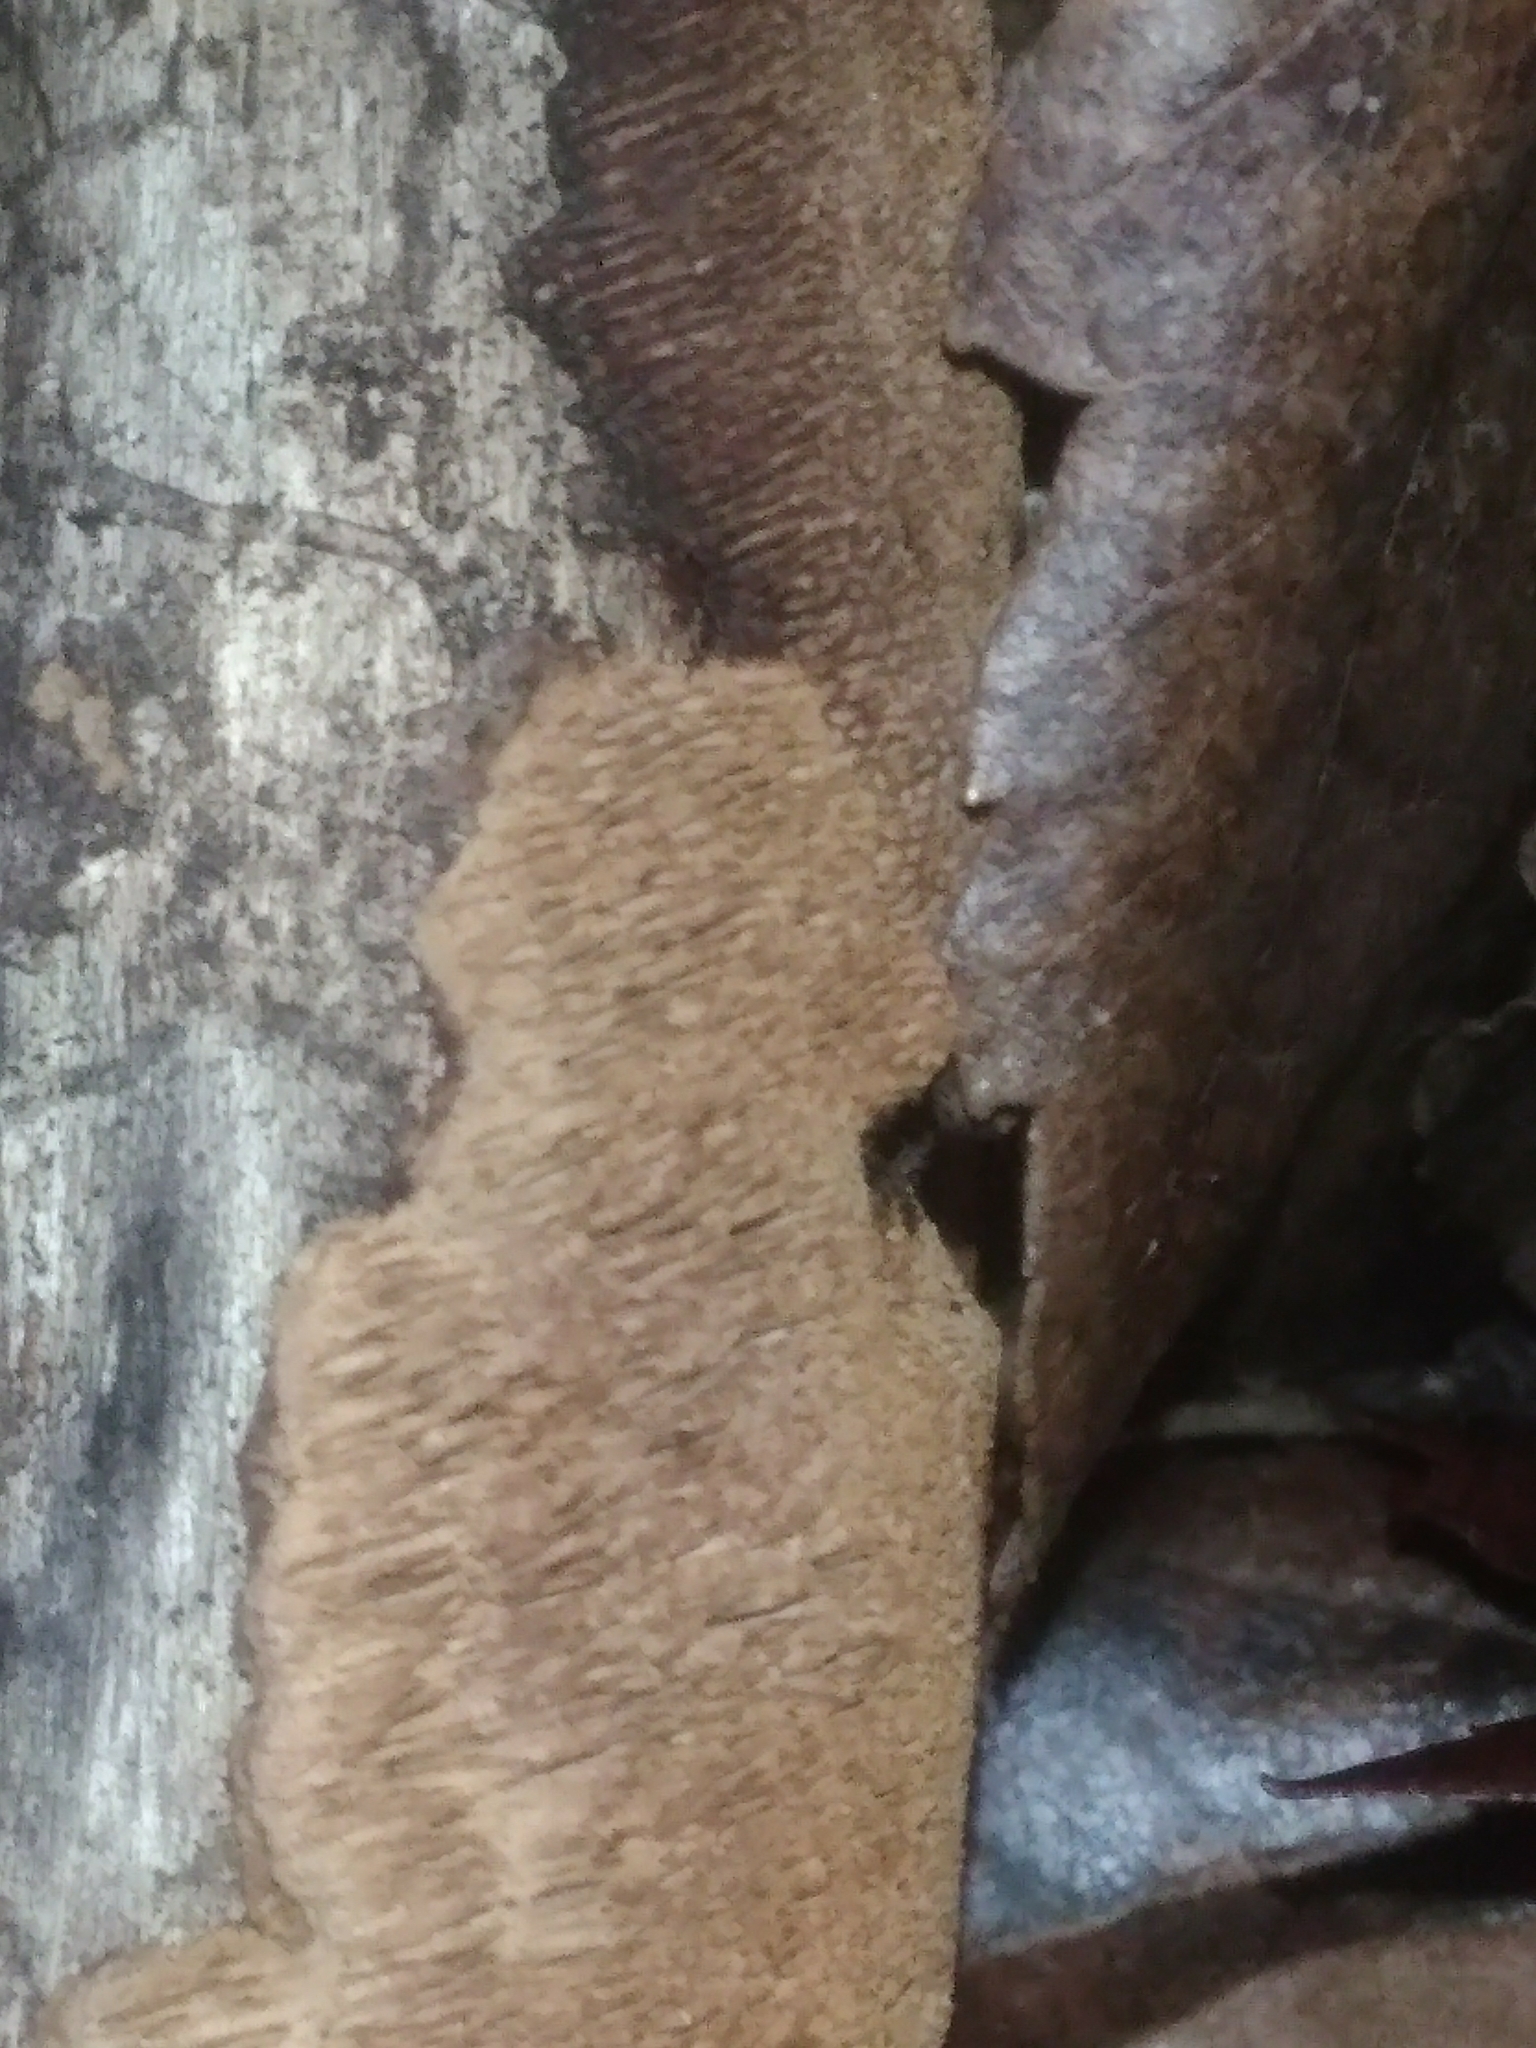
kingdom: Fungi
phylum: Basidiomycota
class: Agaricomycetes
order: Hymenochaetales
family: Hymenochaetaceae
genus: Hydnoporia
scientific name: Hydnoporia olivacea
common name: Brown-toothed crust fungus
